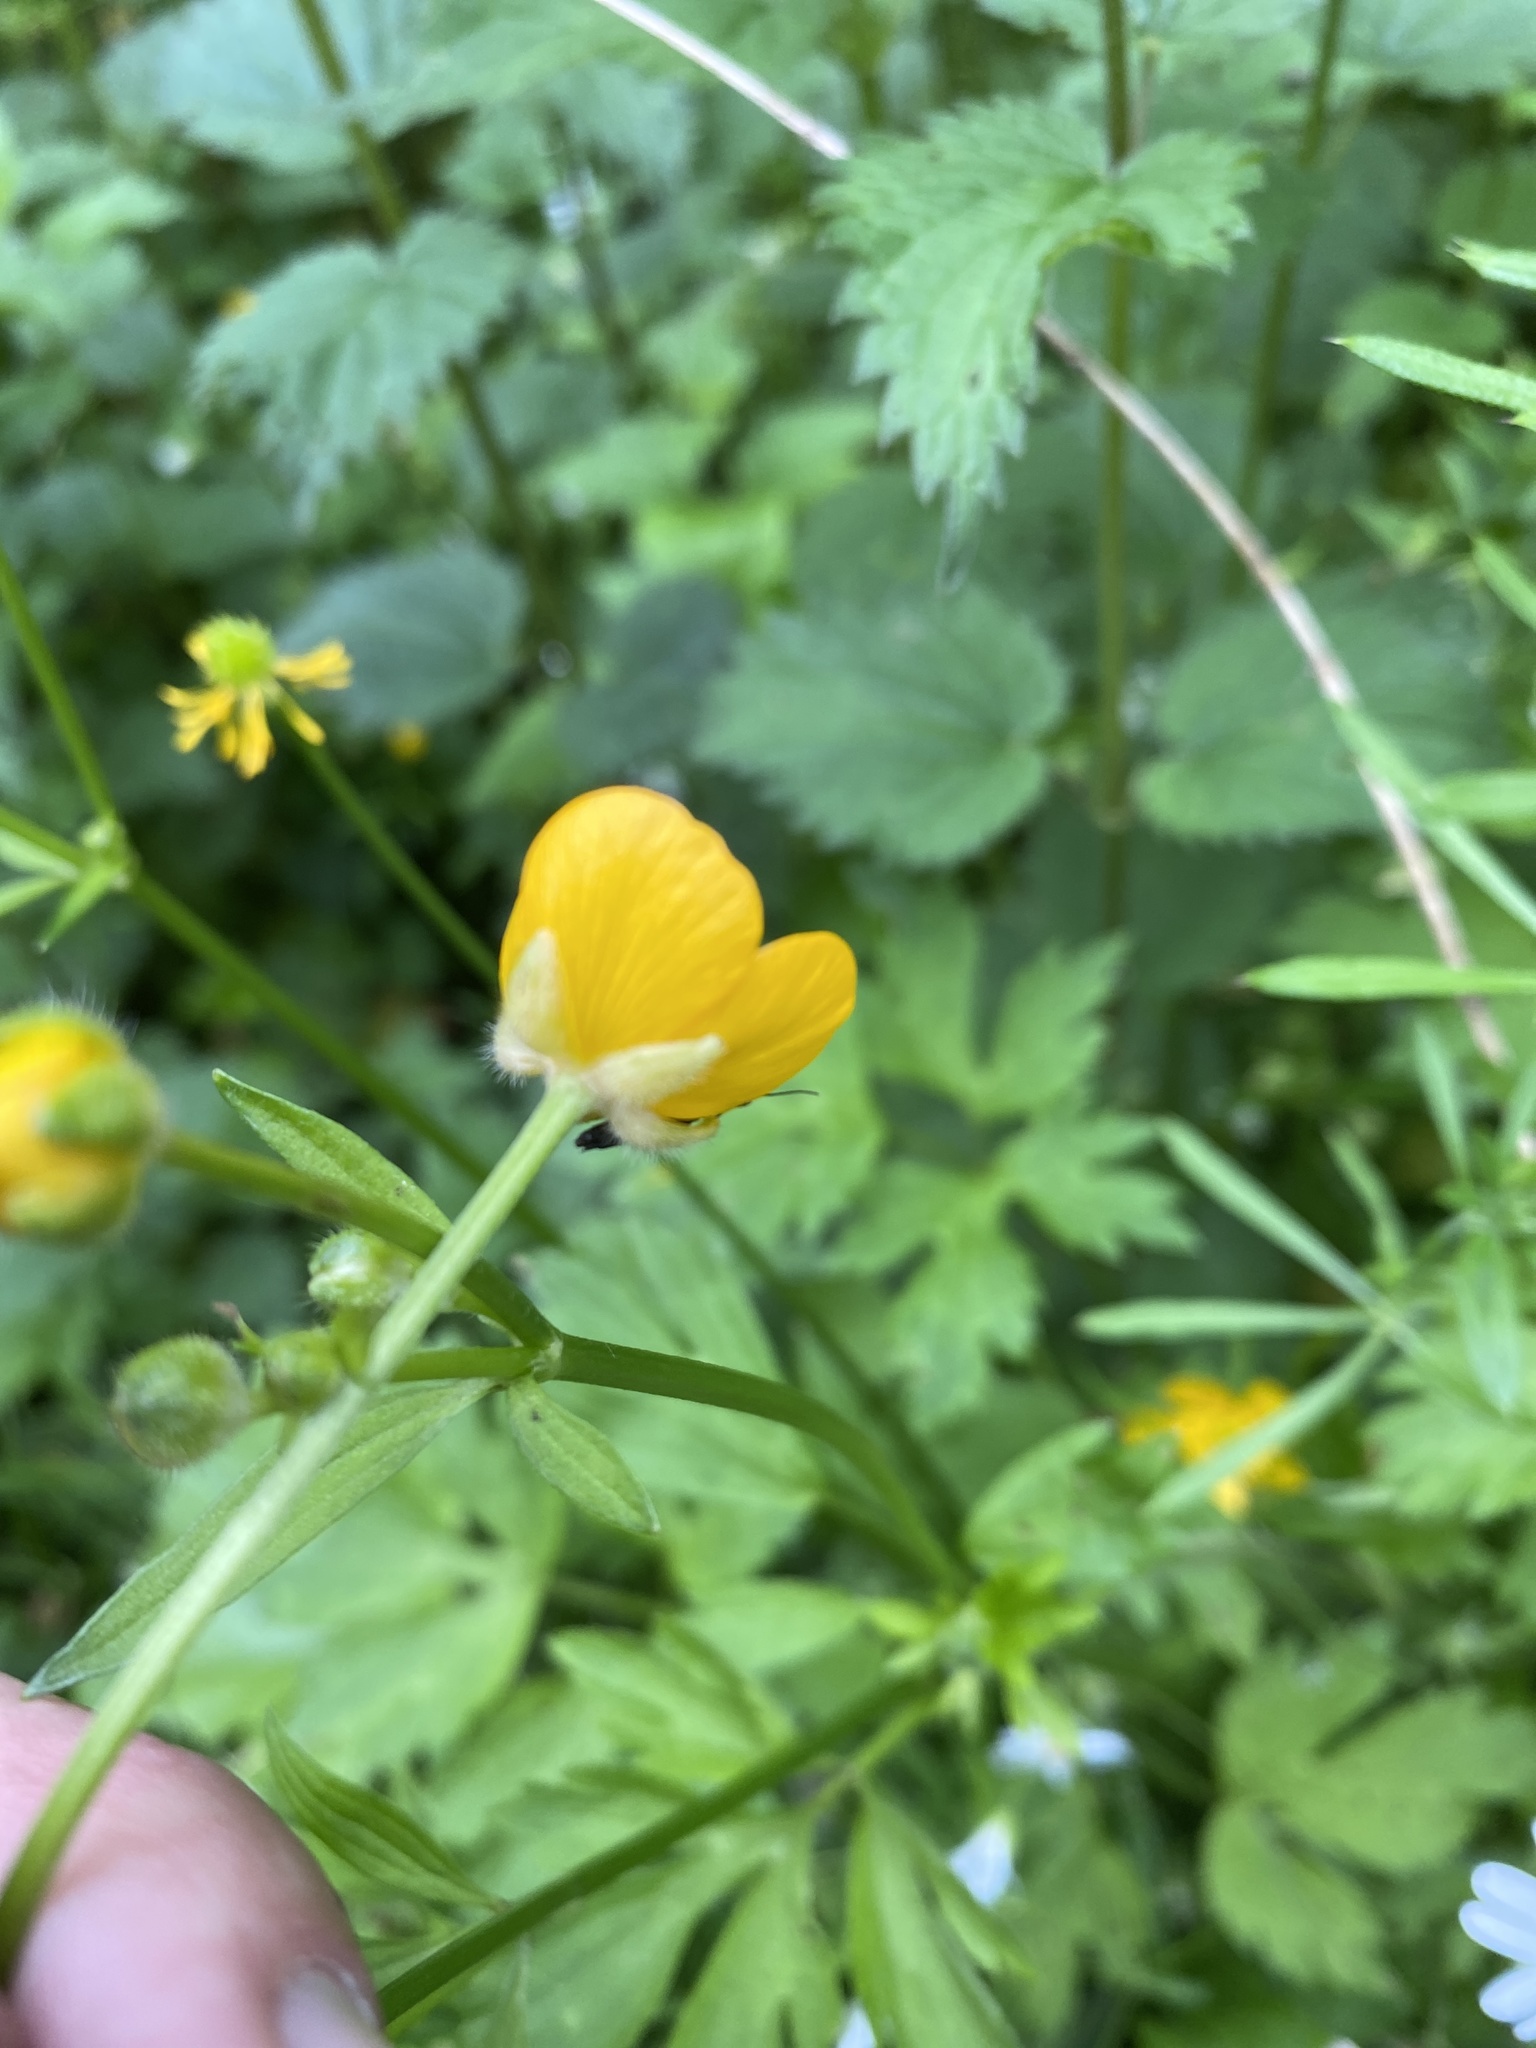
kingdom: Plantae
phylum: Tracheophyta
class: Magnoliopsida
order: Ranunculales
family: Ranunculaceae
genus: Ranunculus
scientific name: Ranunculus repens
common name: Creeping buttercup
